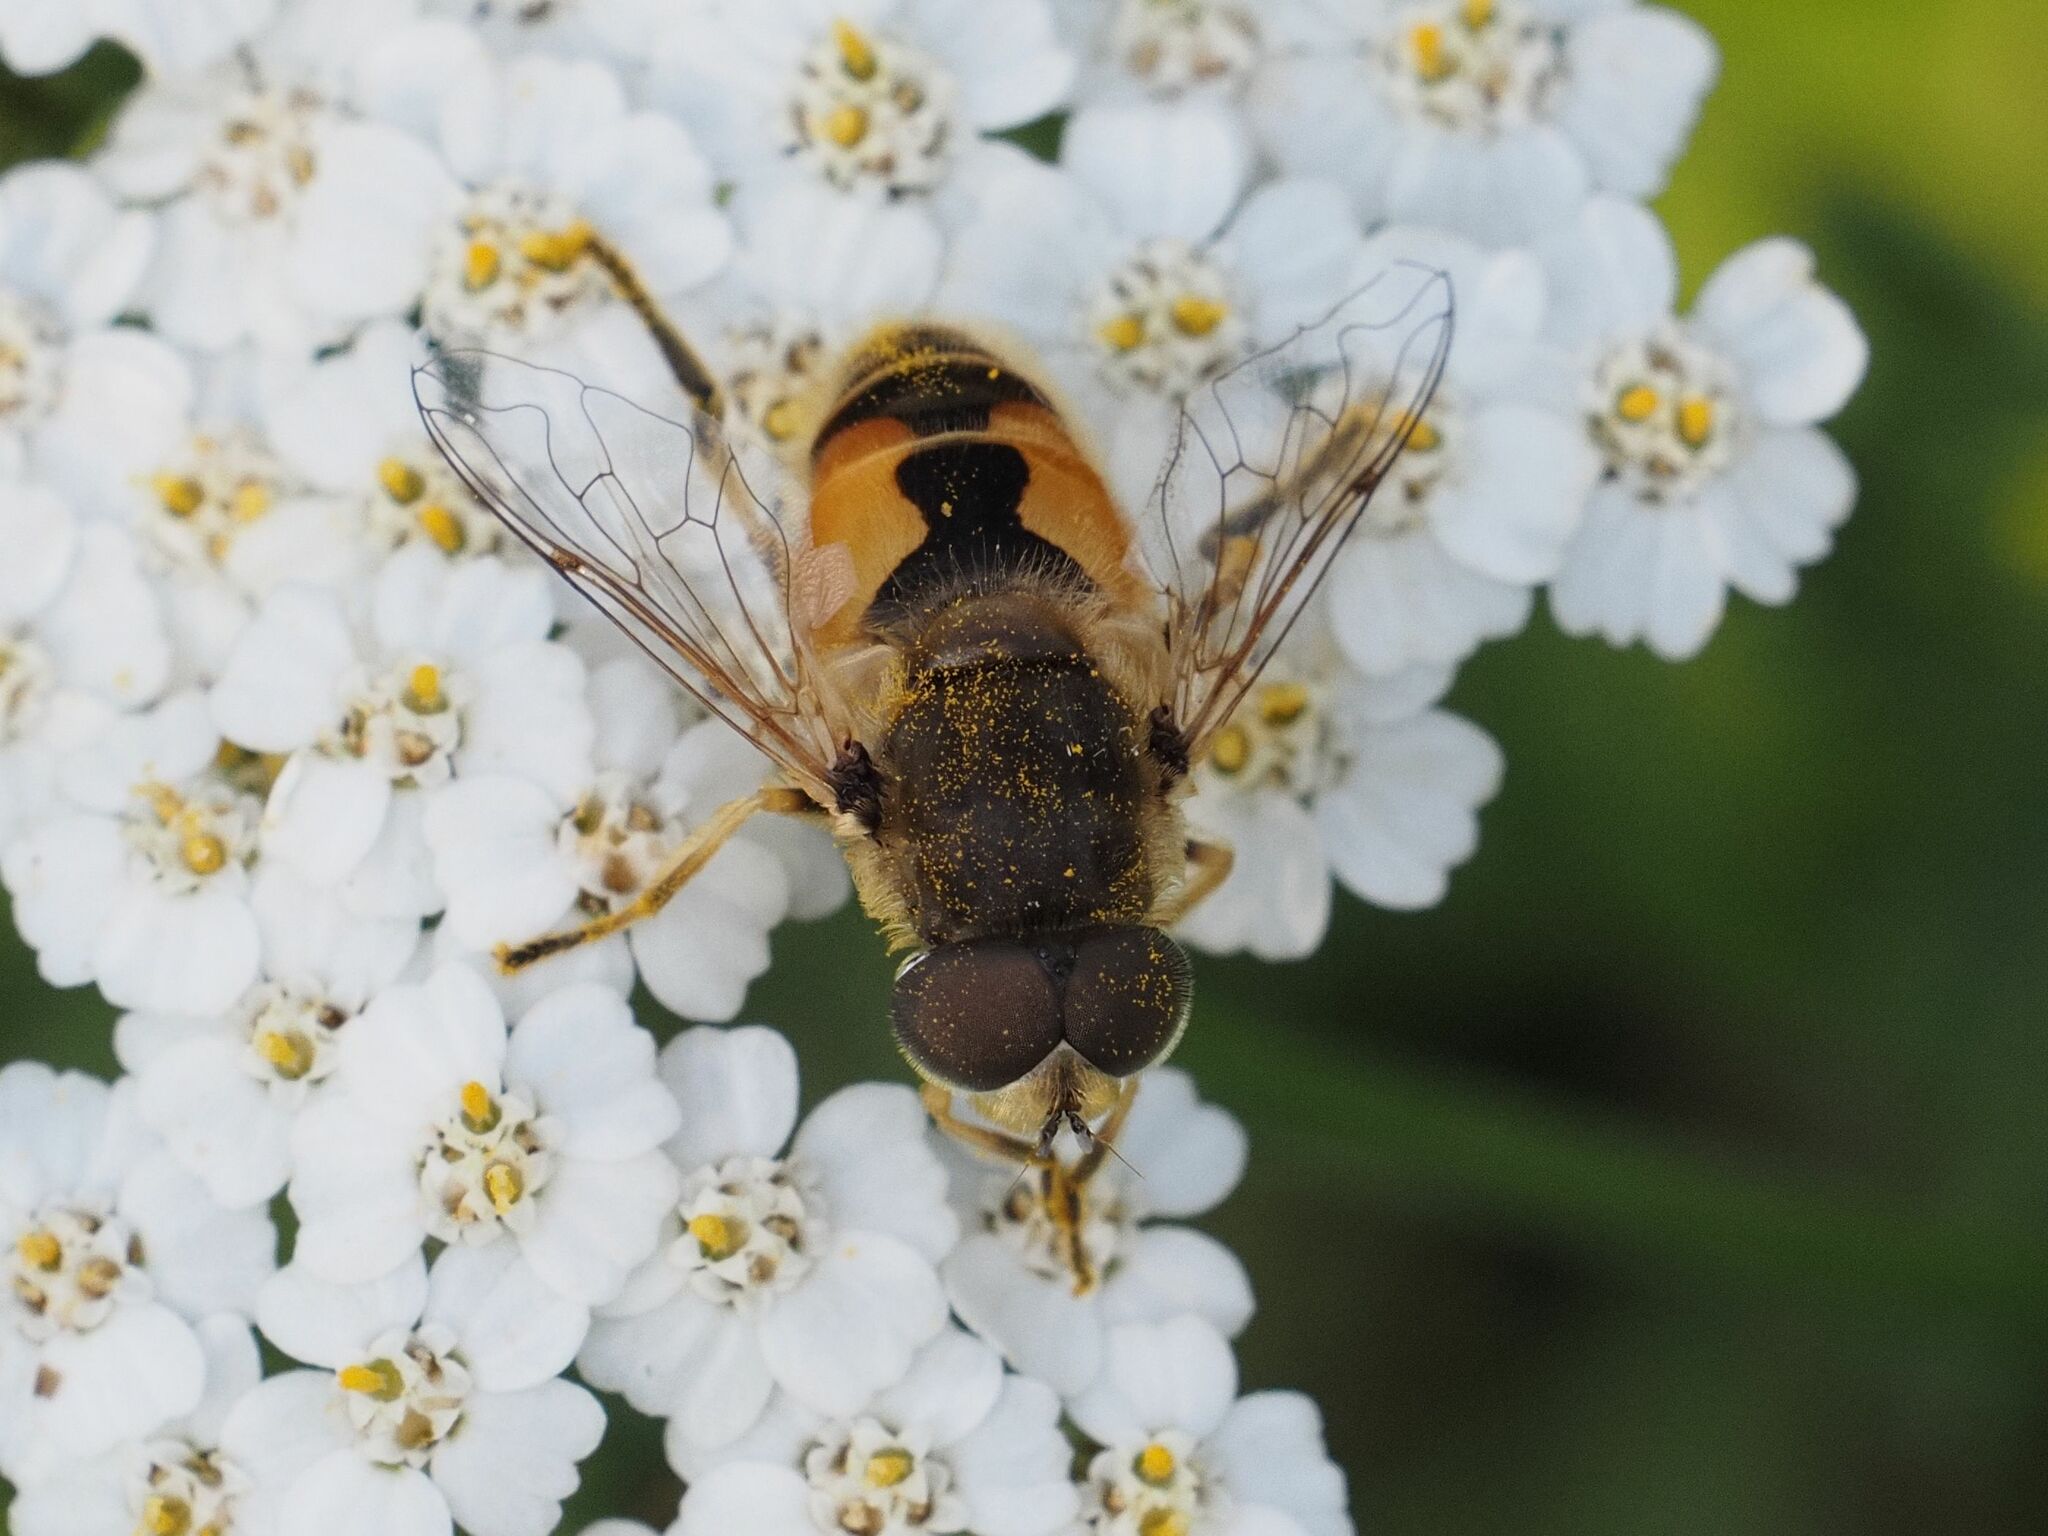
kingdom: Animalia
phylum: Arthropoda
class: Insecta
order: Diptera
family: Syrphidae
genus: Eristalis
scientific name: Eristalis arbustorum
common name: Hover fly
